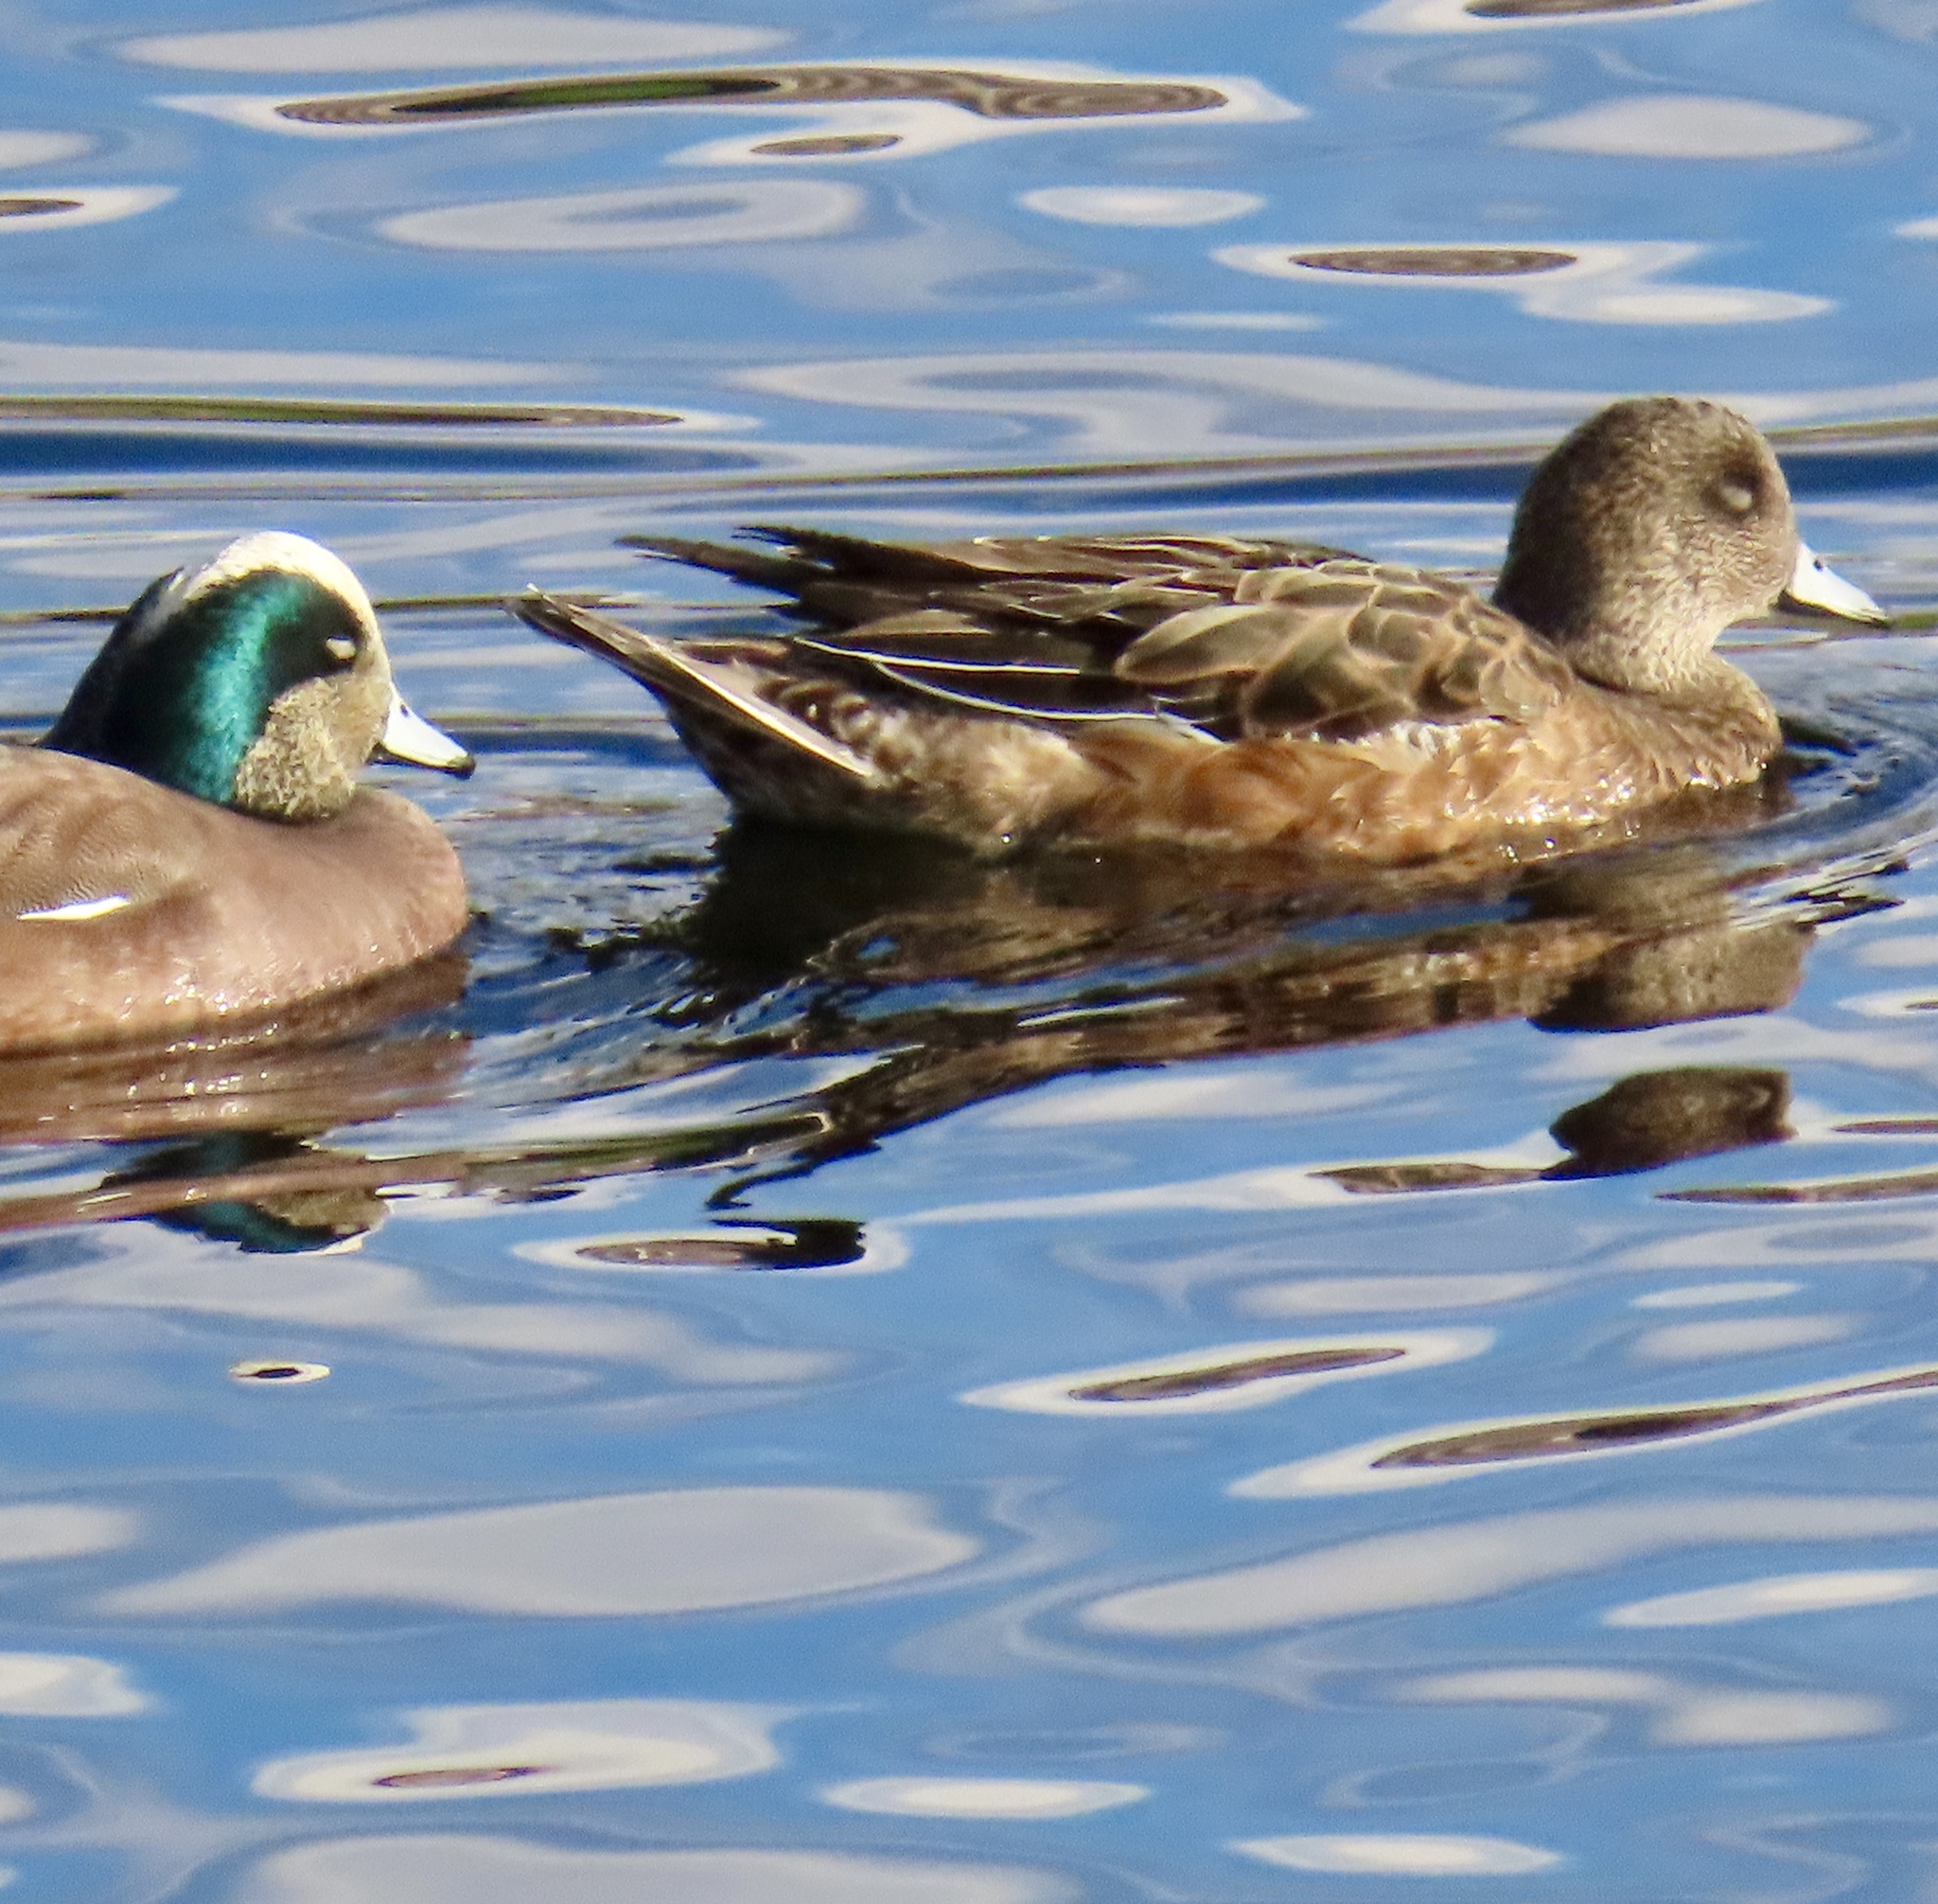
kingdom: Animalia
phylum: Chordata
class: Aves
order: Anseriformes
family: Anatidae
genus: Mareca
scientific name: Mareca americana
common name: American wigeon
